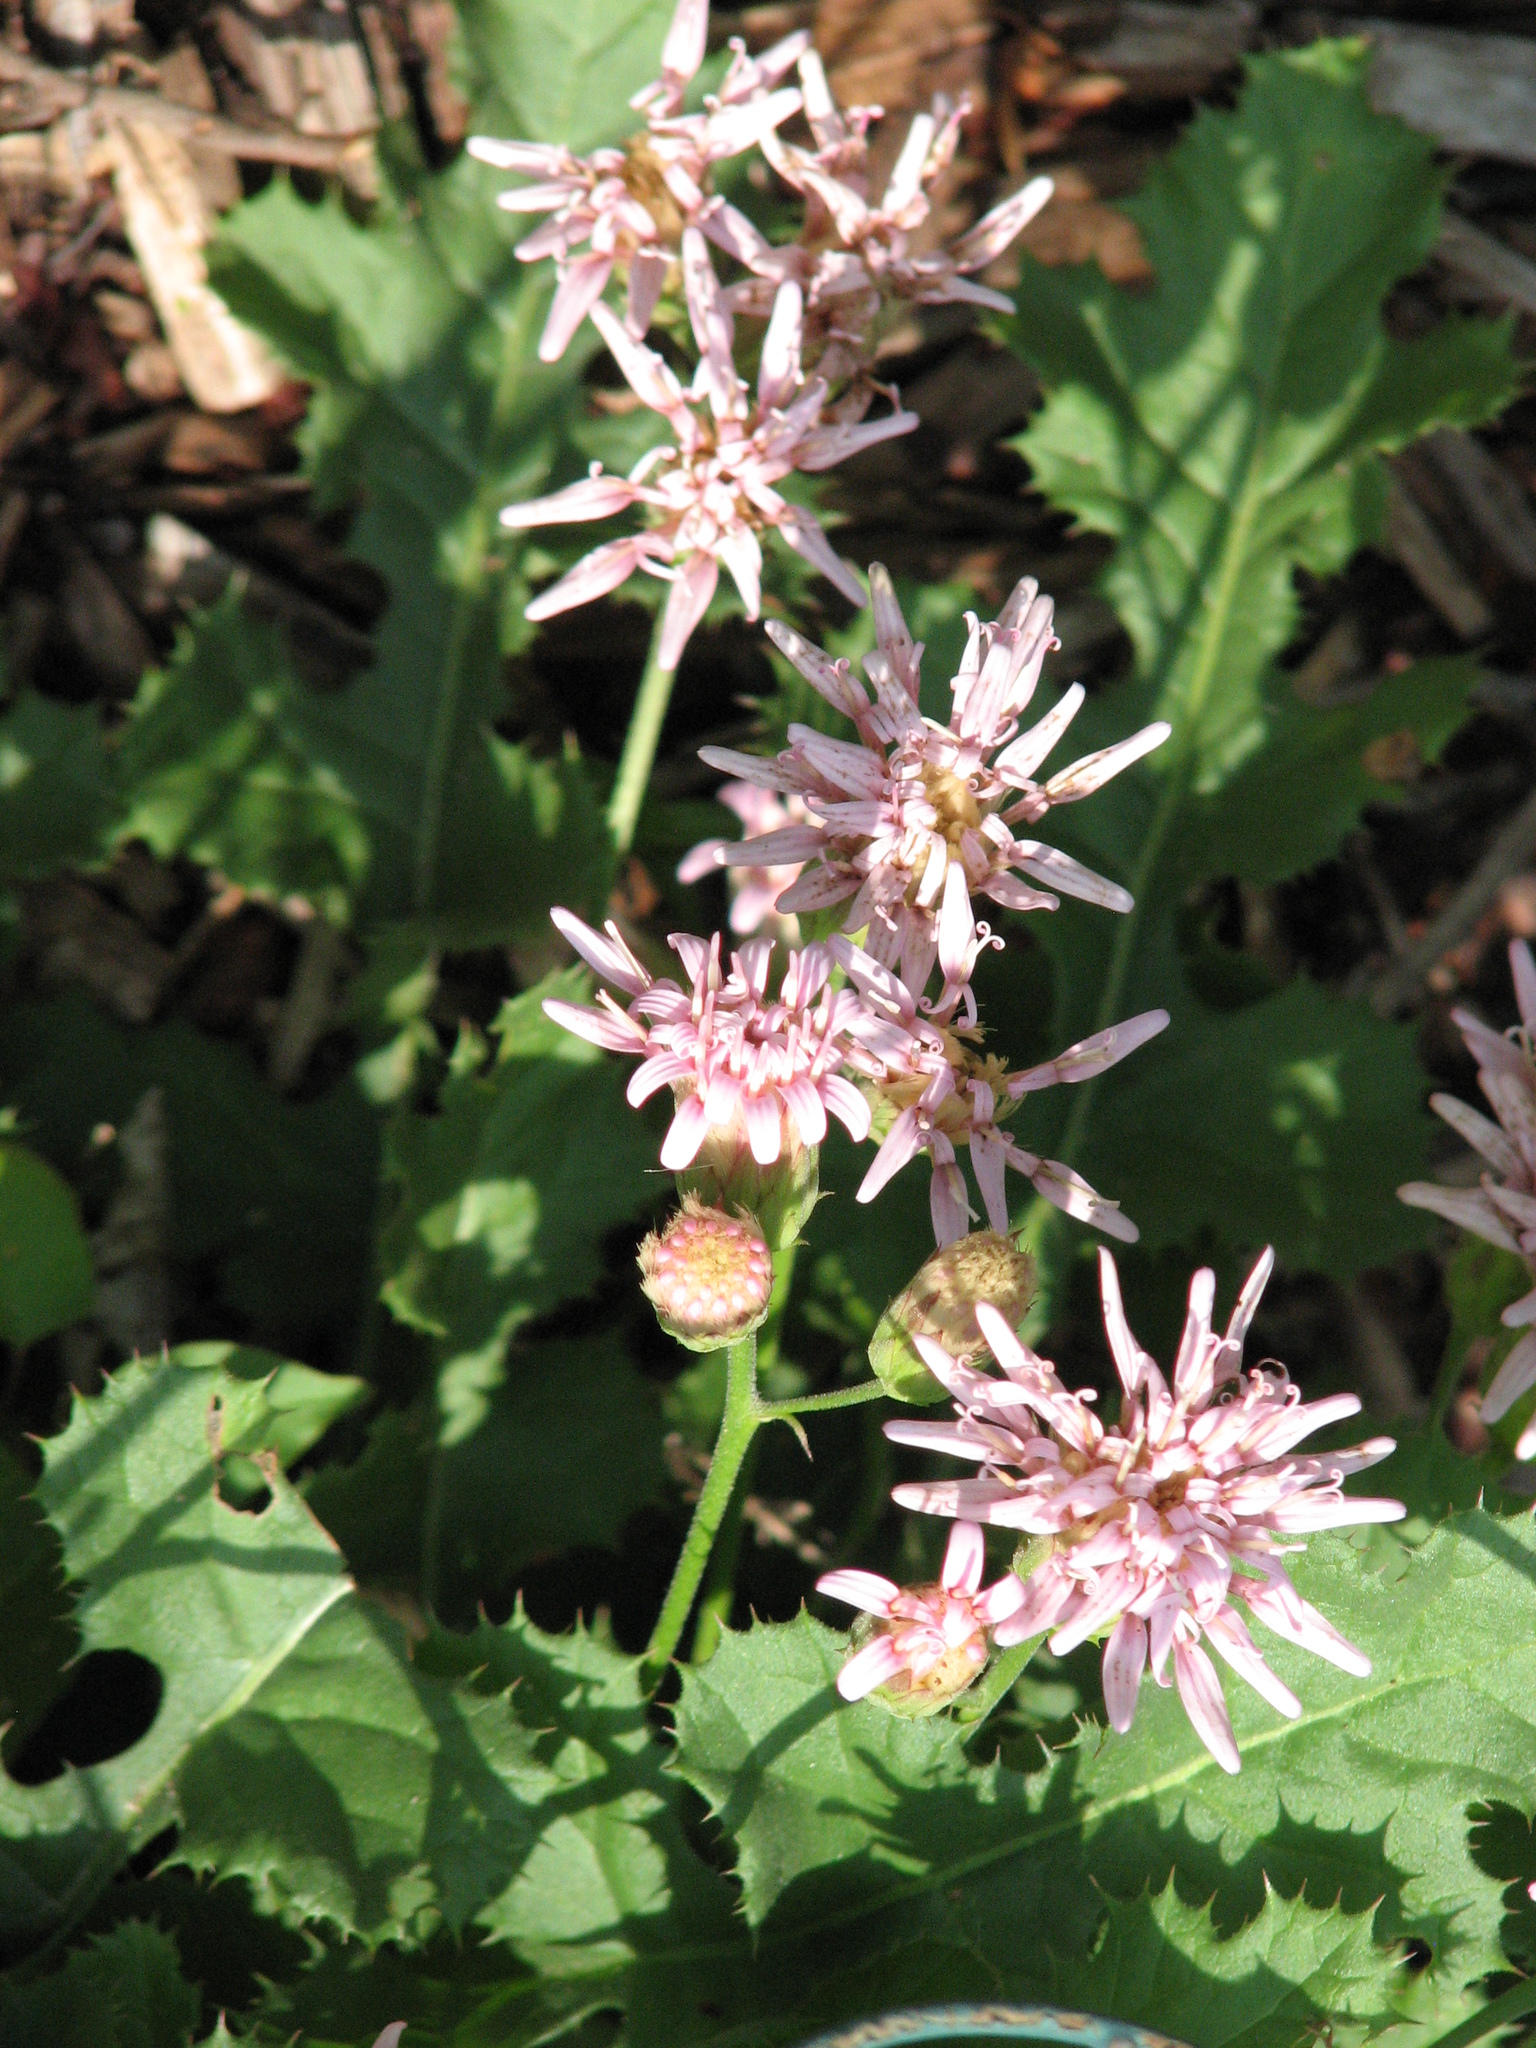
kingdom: Plantae
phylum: Tracheophyta
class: Magnoliopsida
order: Asterales
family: Asteraceae
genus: Acourtia
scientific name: Acourtia runcinata
